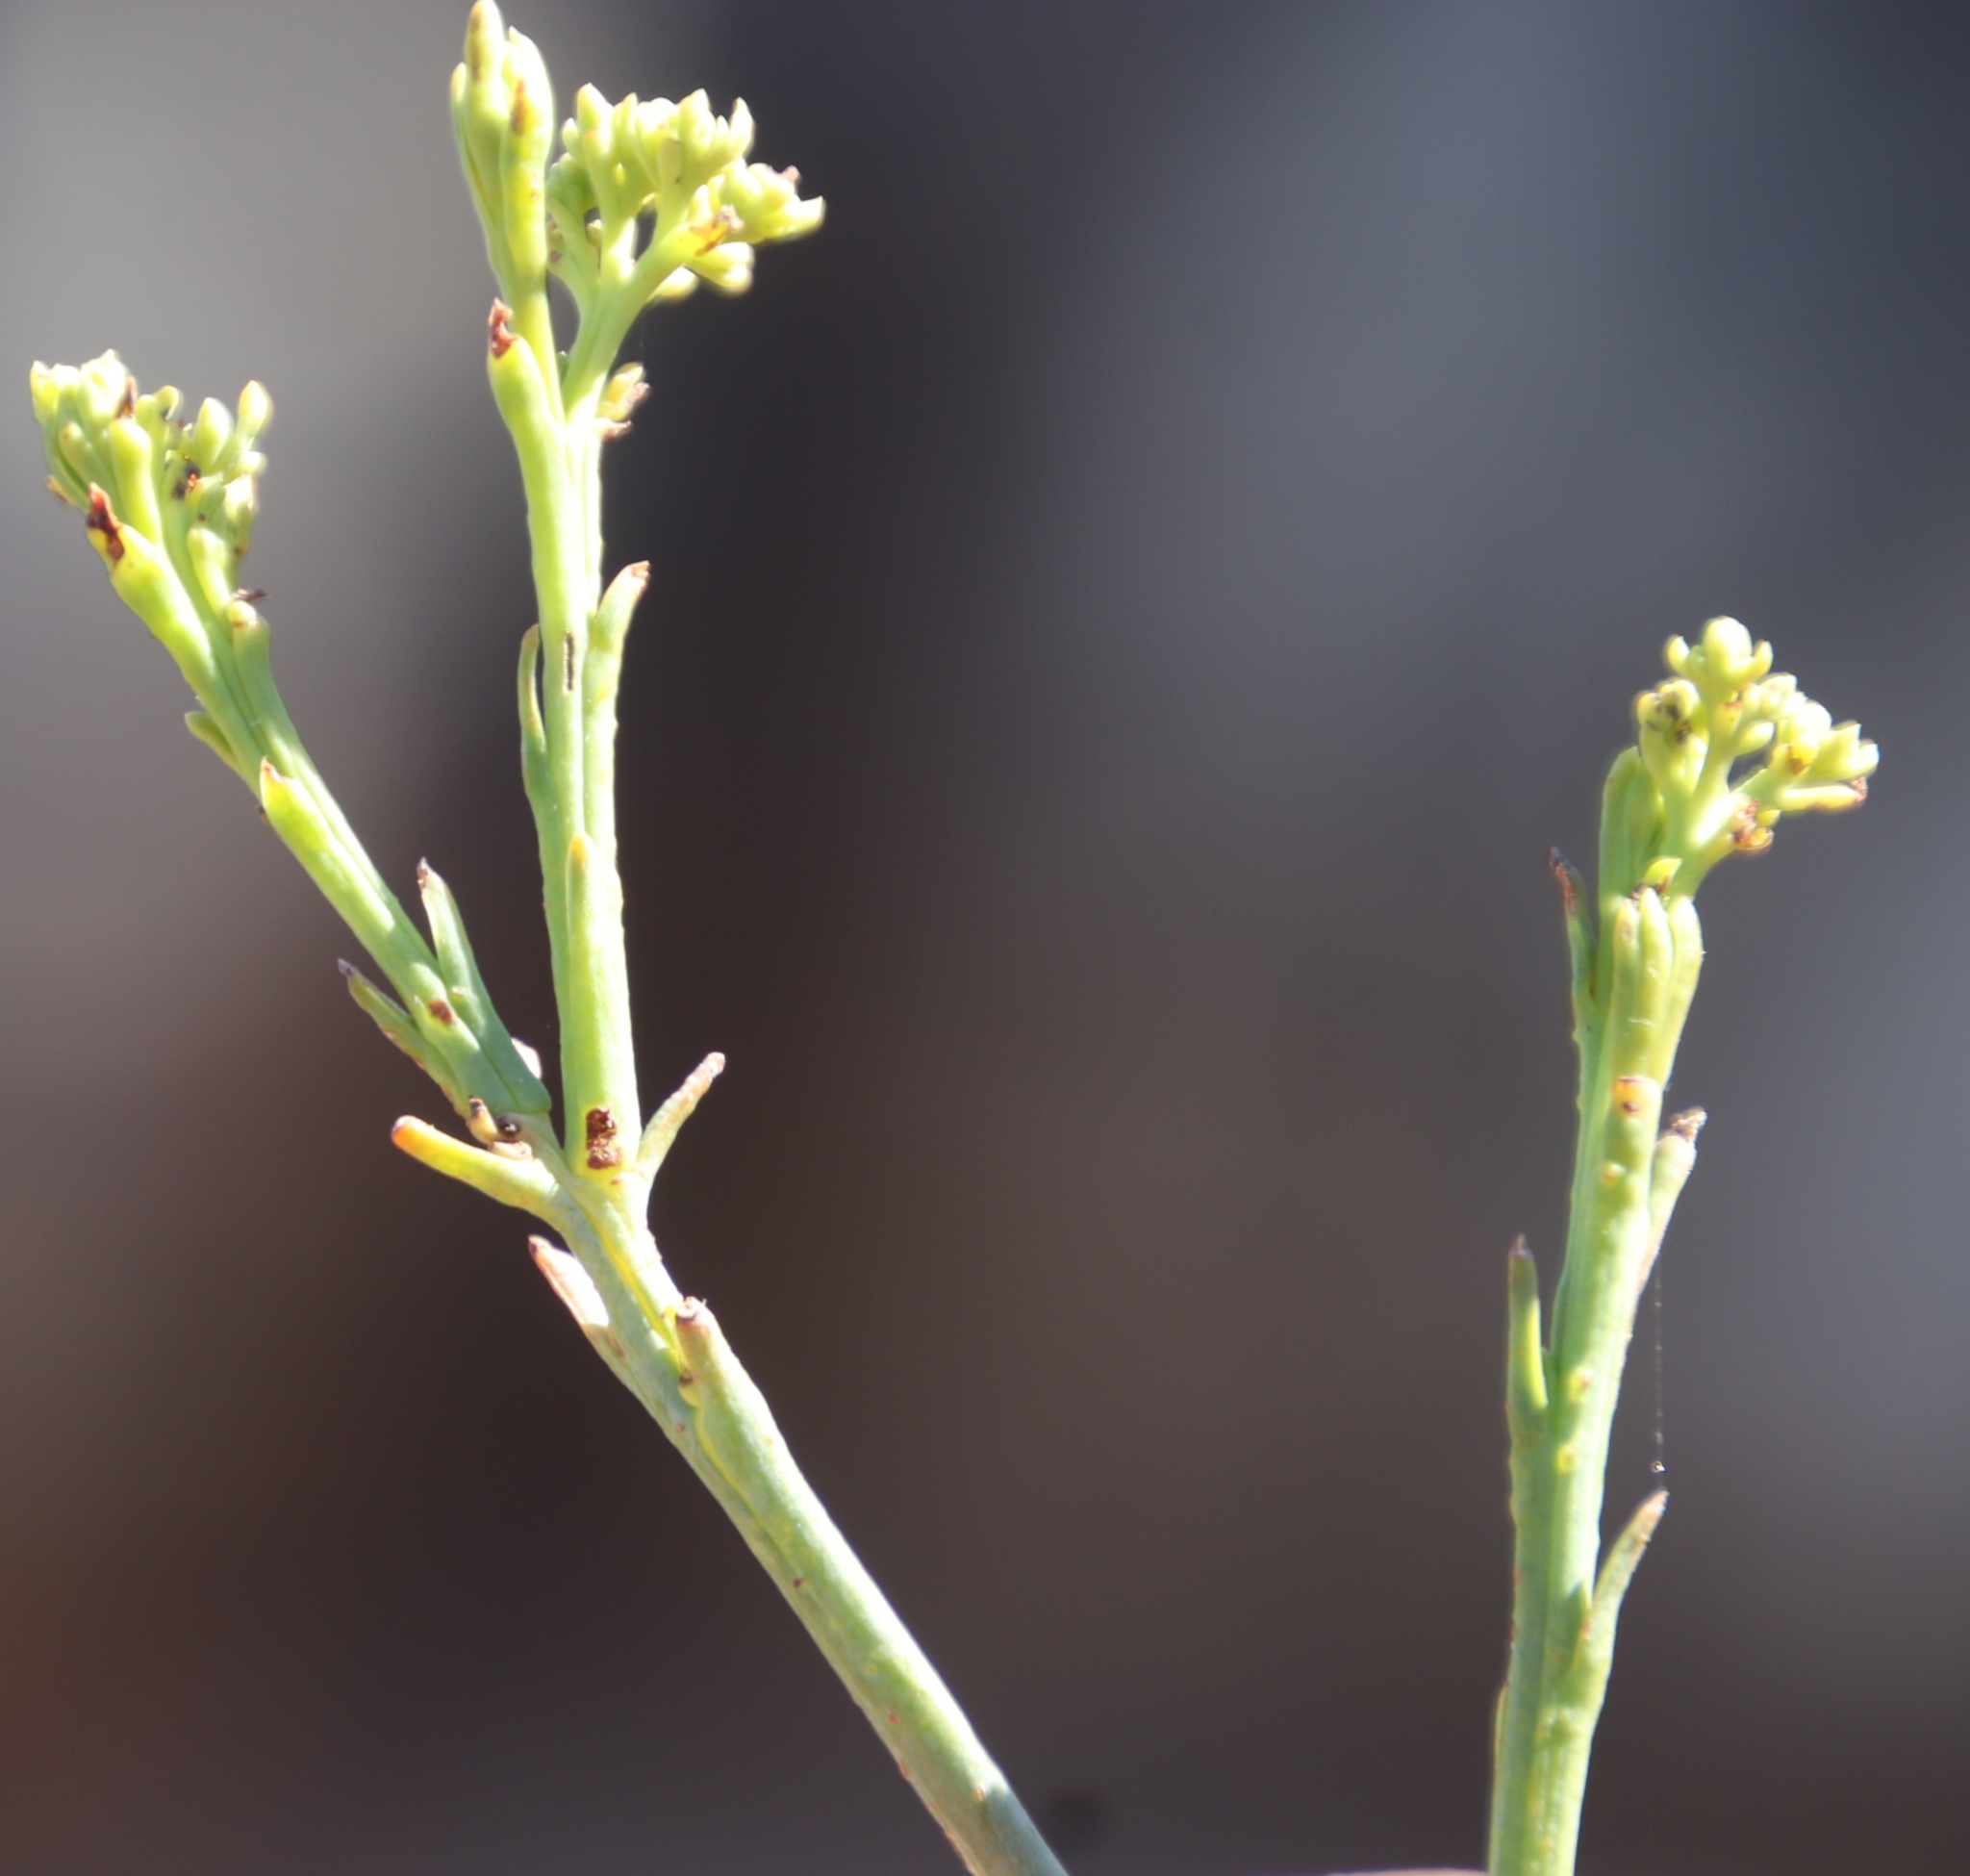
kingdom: Plantae
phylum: Tracheophyta
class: Magnoliopsida
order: Santalales
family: Thesiaceae
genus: Thesium
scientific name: Thesium strictum
